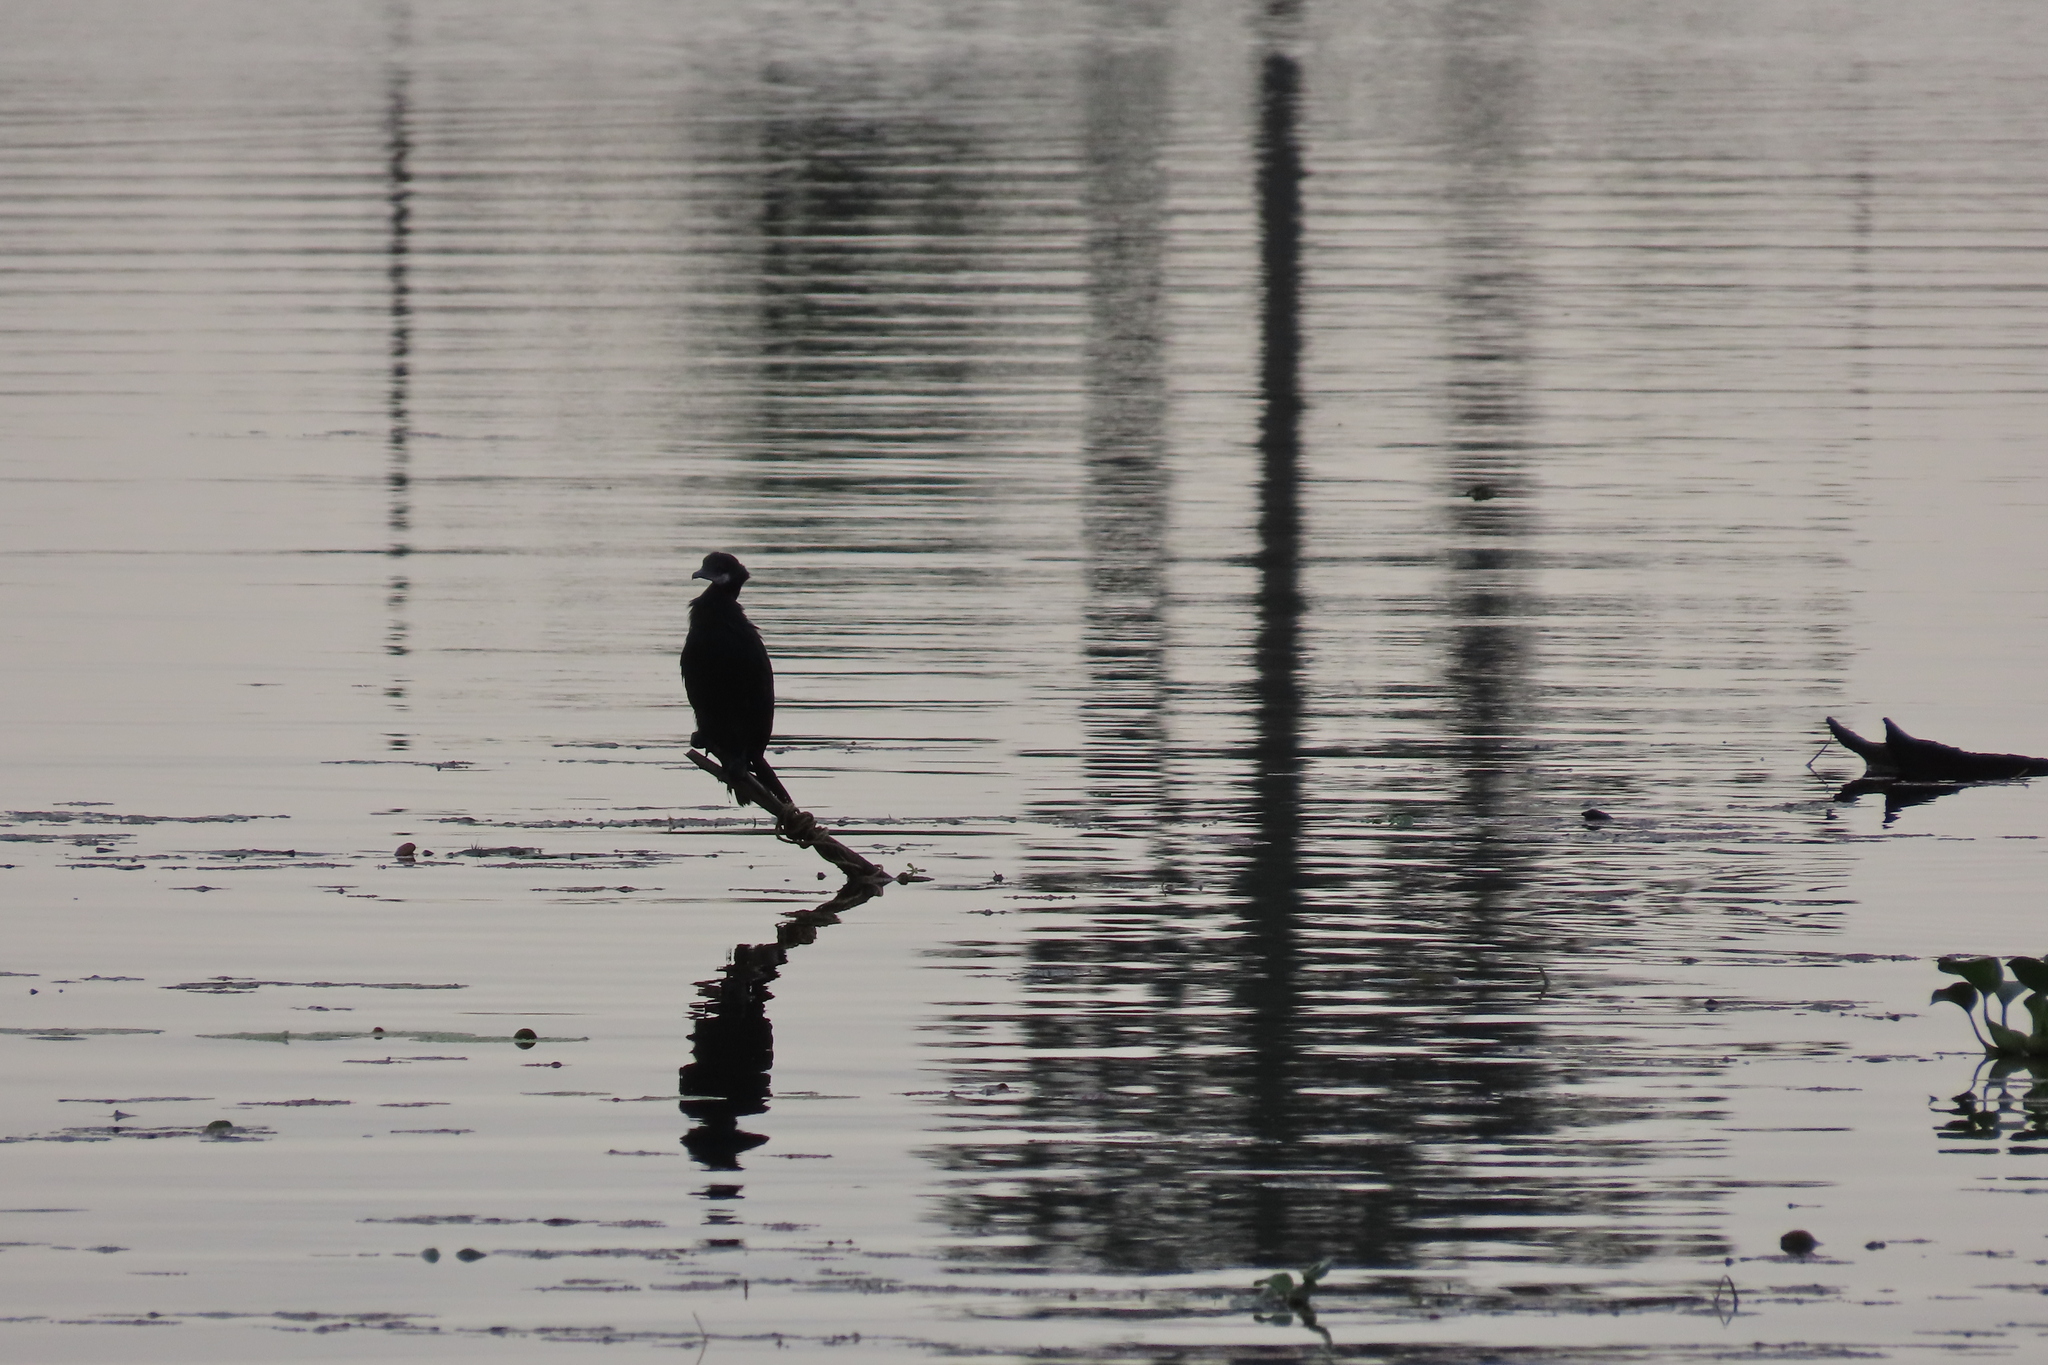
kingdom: Animalia
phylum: Chordata
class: Aves
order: Suliformes
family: Phalacrocoracidae
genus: Microcarbo
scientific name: Microcarbo niger
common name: Little cormorant
